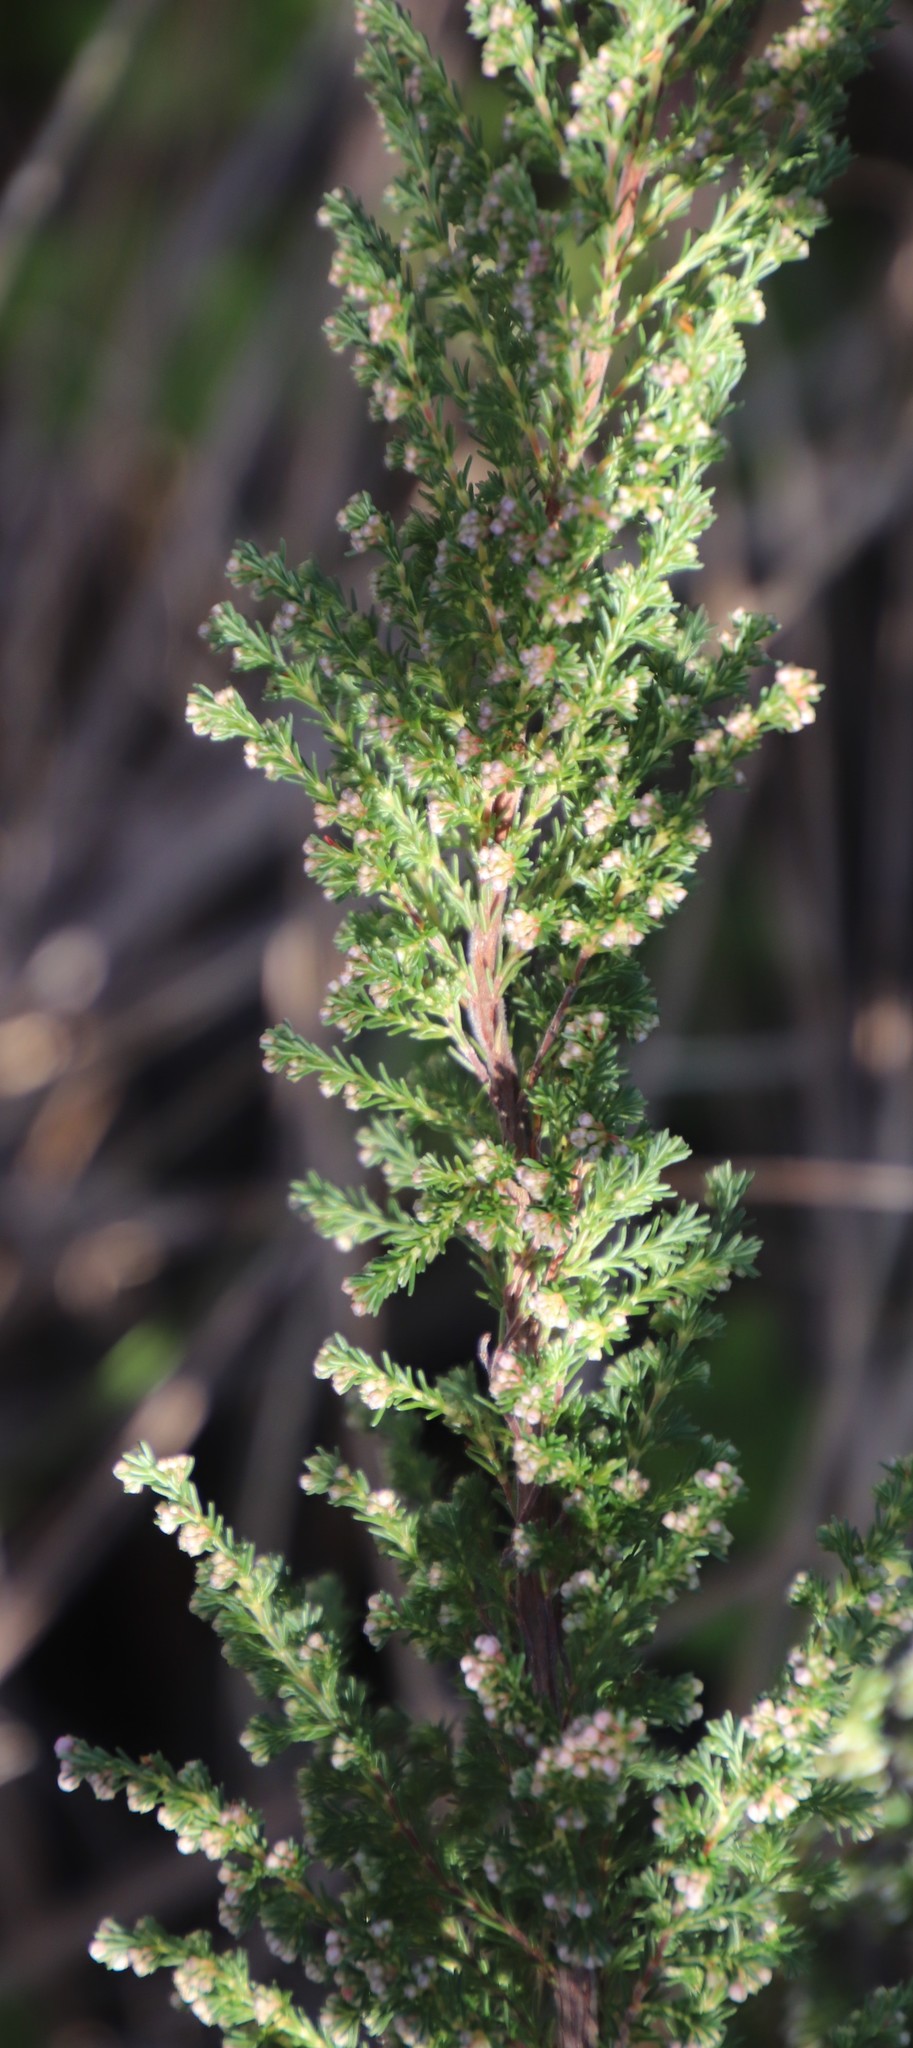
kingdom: Plantae
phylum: Tracheophyta
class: Magnoliopsida
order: Ericales
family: Ericaceae
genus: Erica
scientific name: Erica mauritanica
